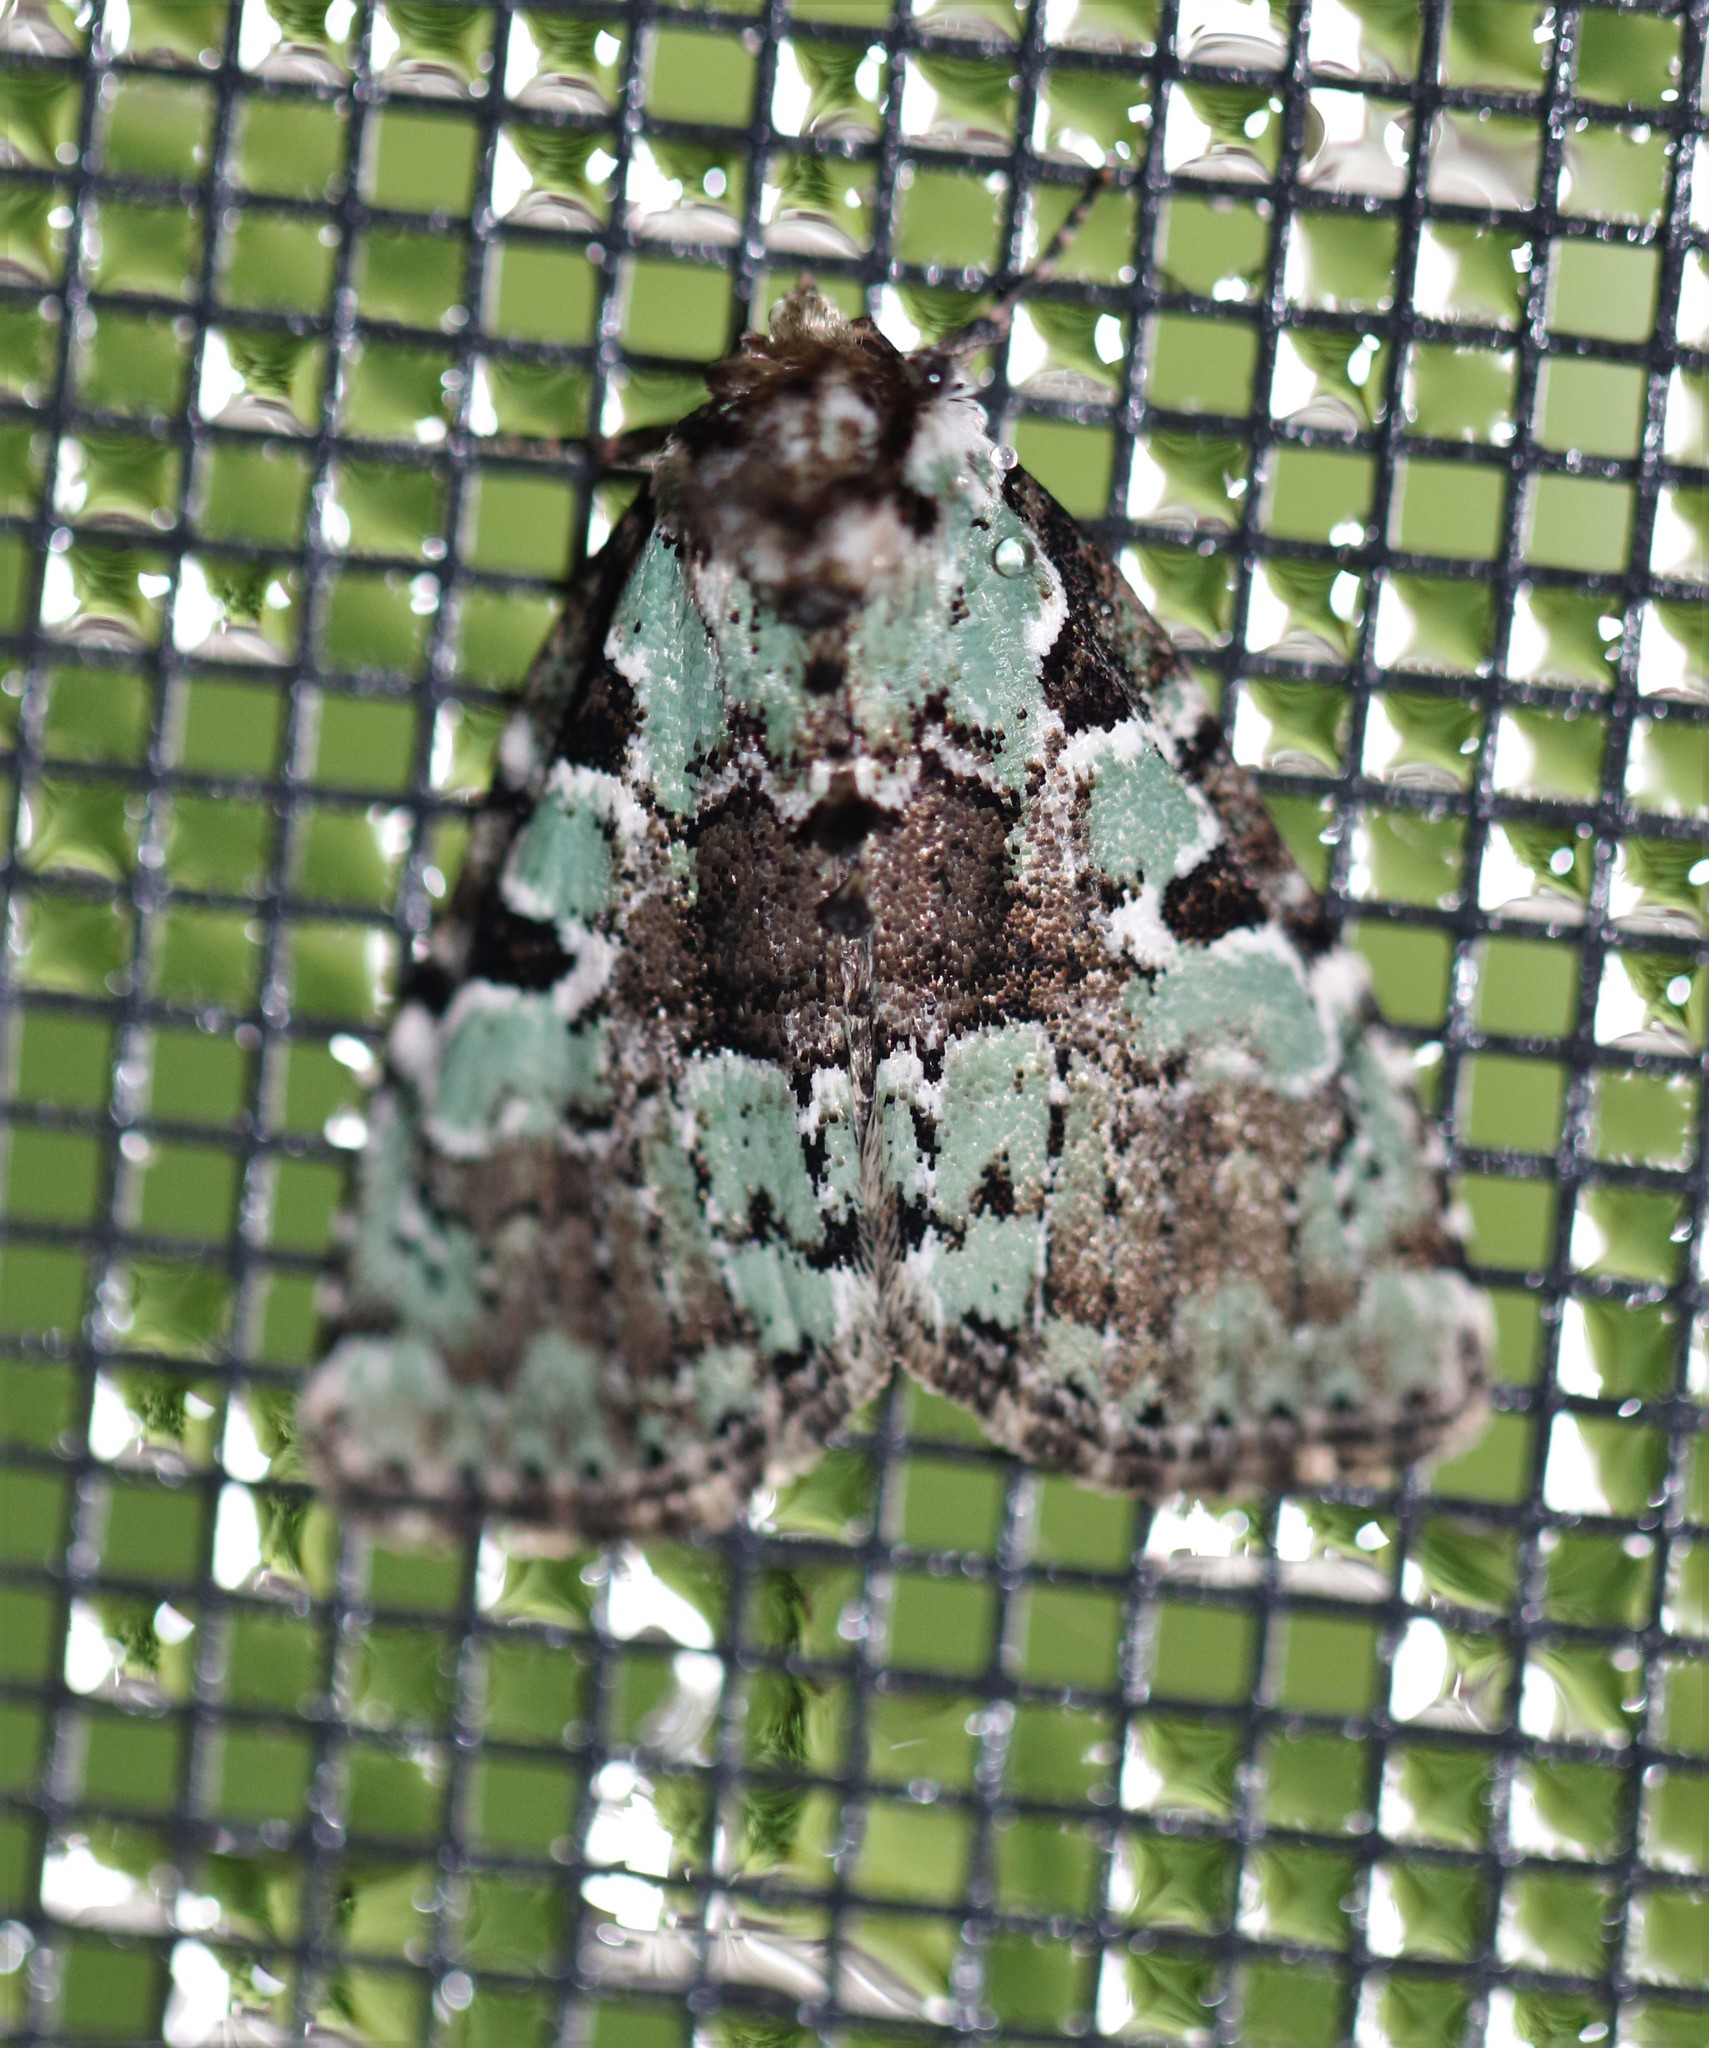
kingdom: Animalia
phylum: Arthropoda
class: Insecta
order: Lepidoptera
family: Noctuidae
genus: Leuconycta
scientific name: Leuconycta lepidula
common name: Marbled-green leuconycta moth
